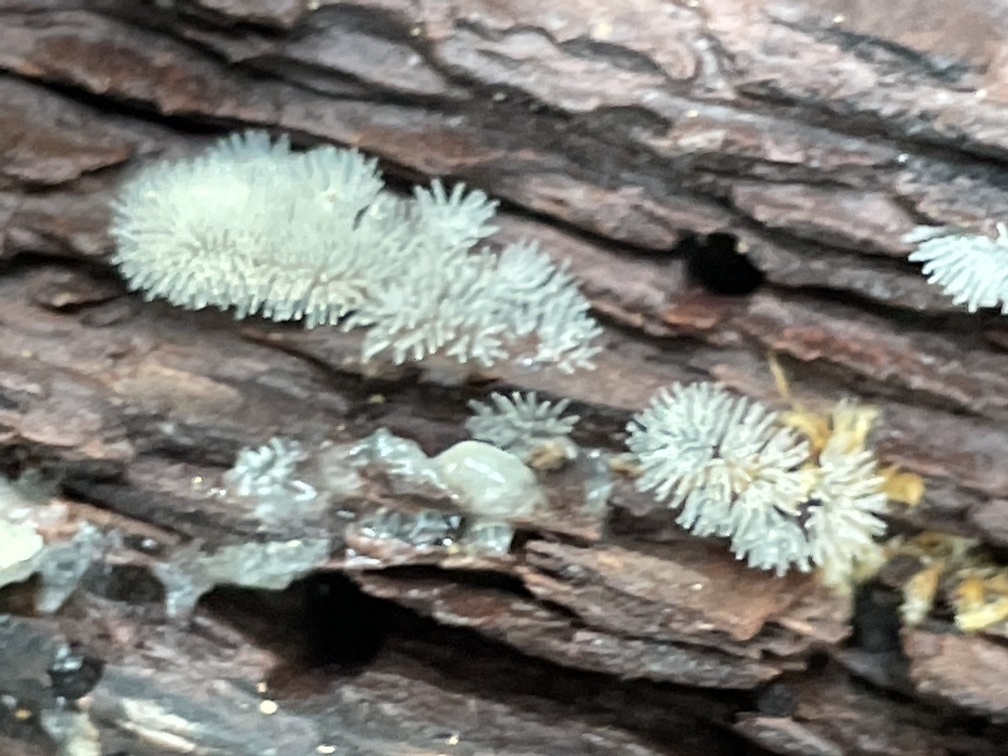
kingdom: Protozoa
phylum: Mycetozoa
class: Protosteliomycetes
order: Ceratiomyxales
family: Ceratiomyxaceae
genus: Ceratiomyxa
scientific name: Ceratiomyxa fruticulosa
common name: Honeycomb coral slime mold
